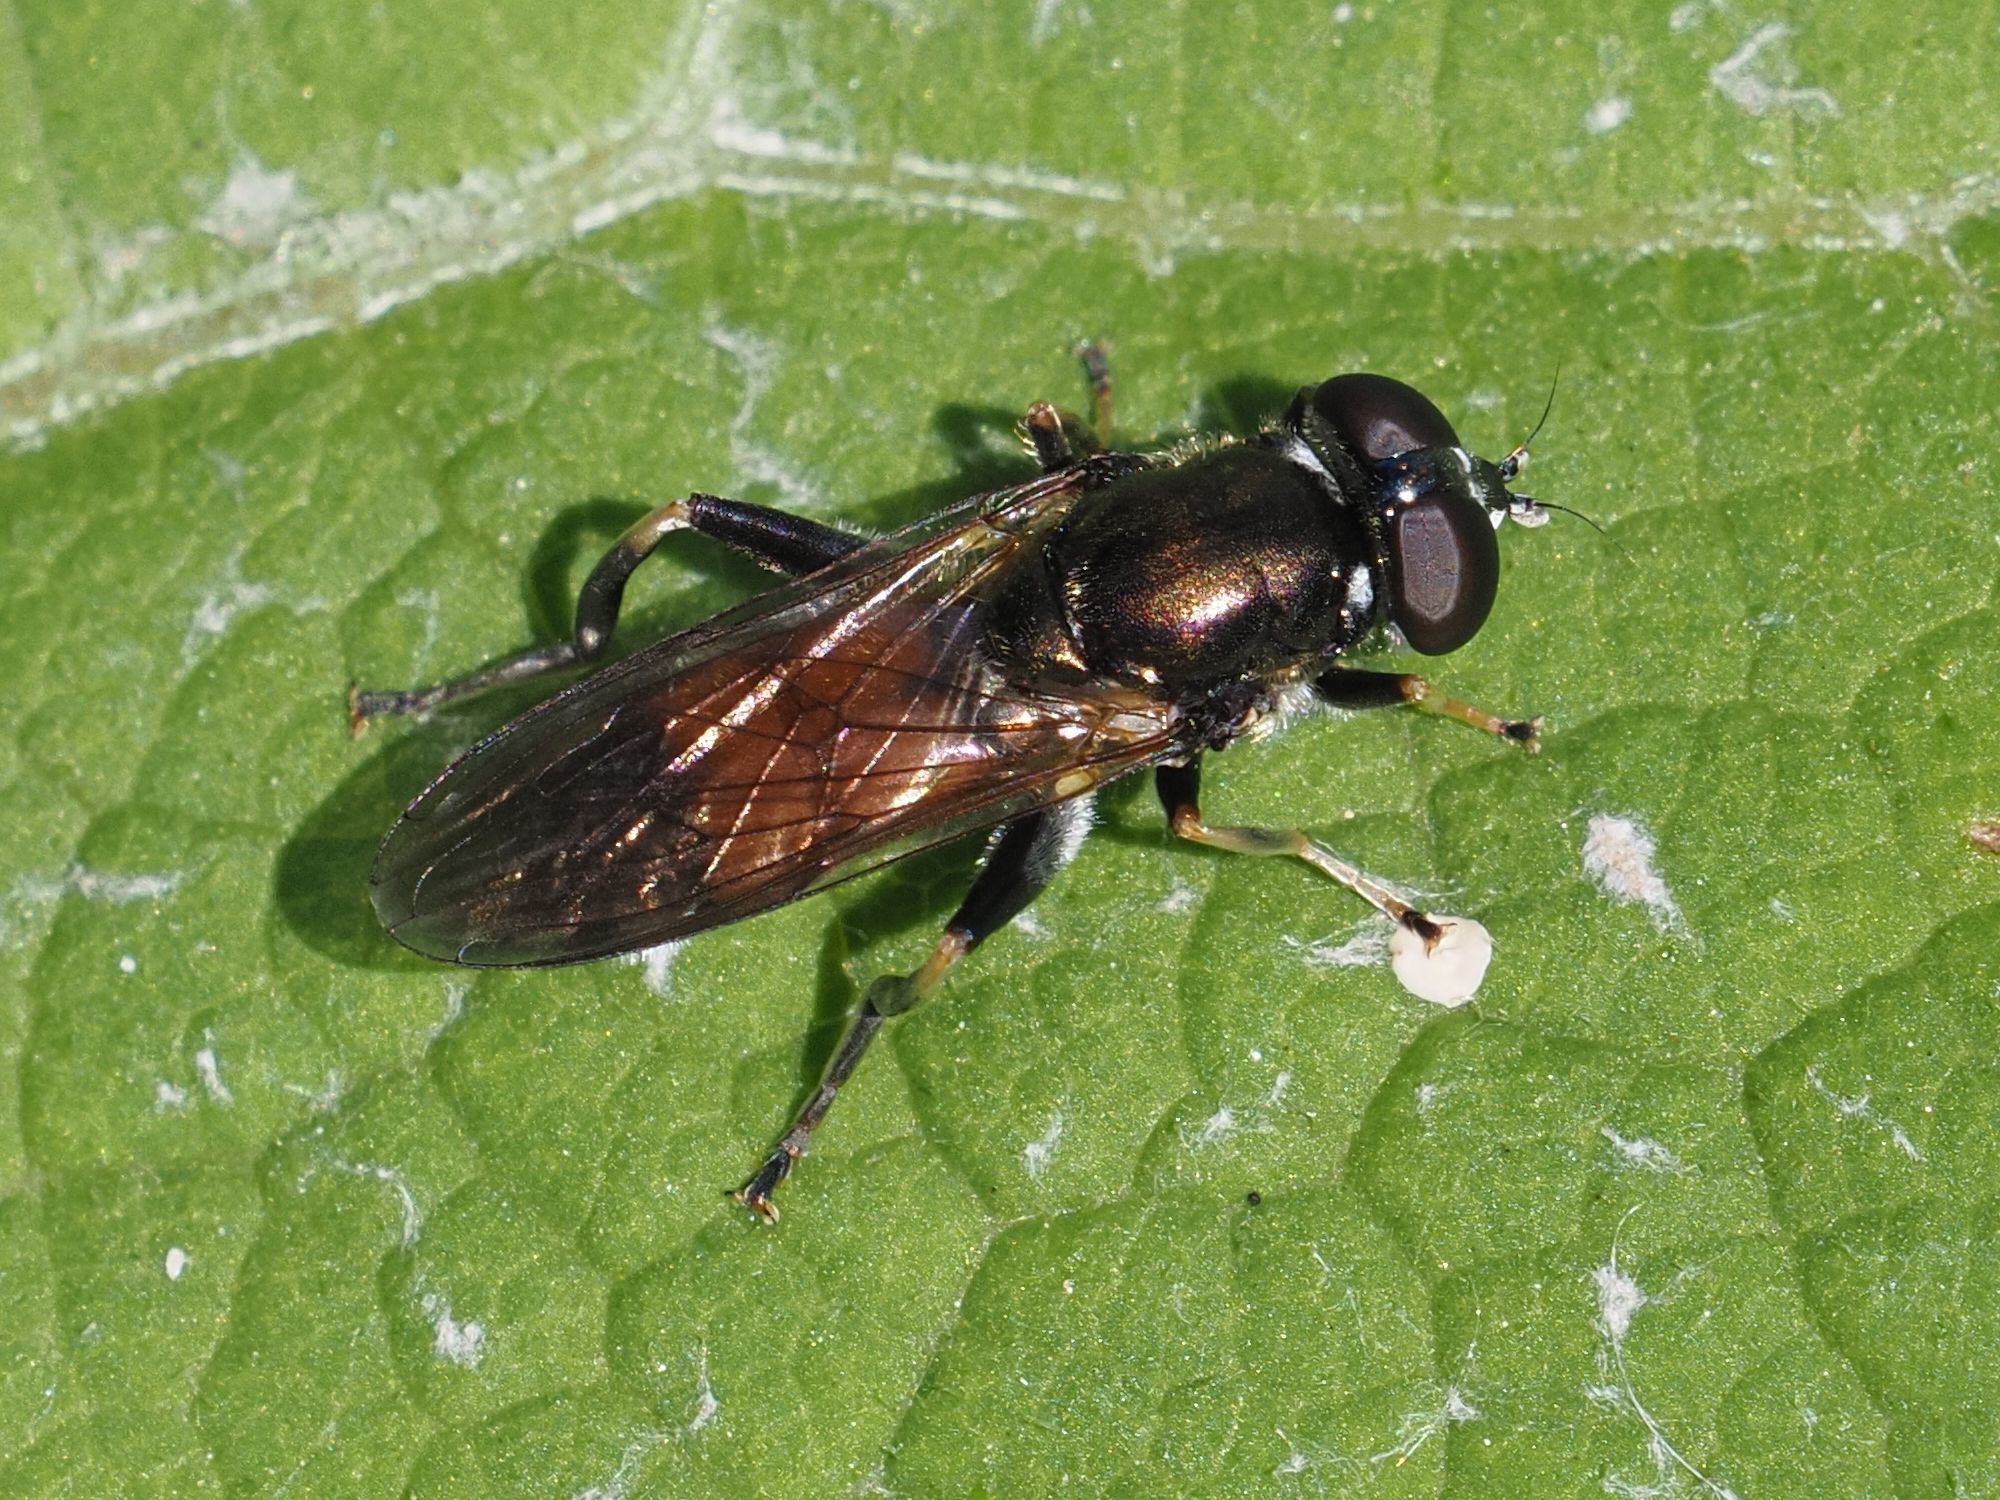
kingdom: Animalia
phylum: Arthropoda
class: Insecta
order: Diptera
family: Syrphidae
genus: Xylota
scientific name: Xylota segnis
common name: Brown-toed forest fly
